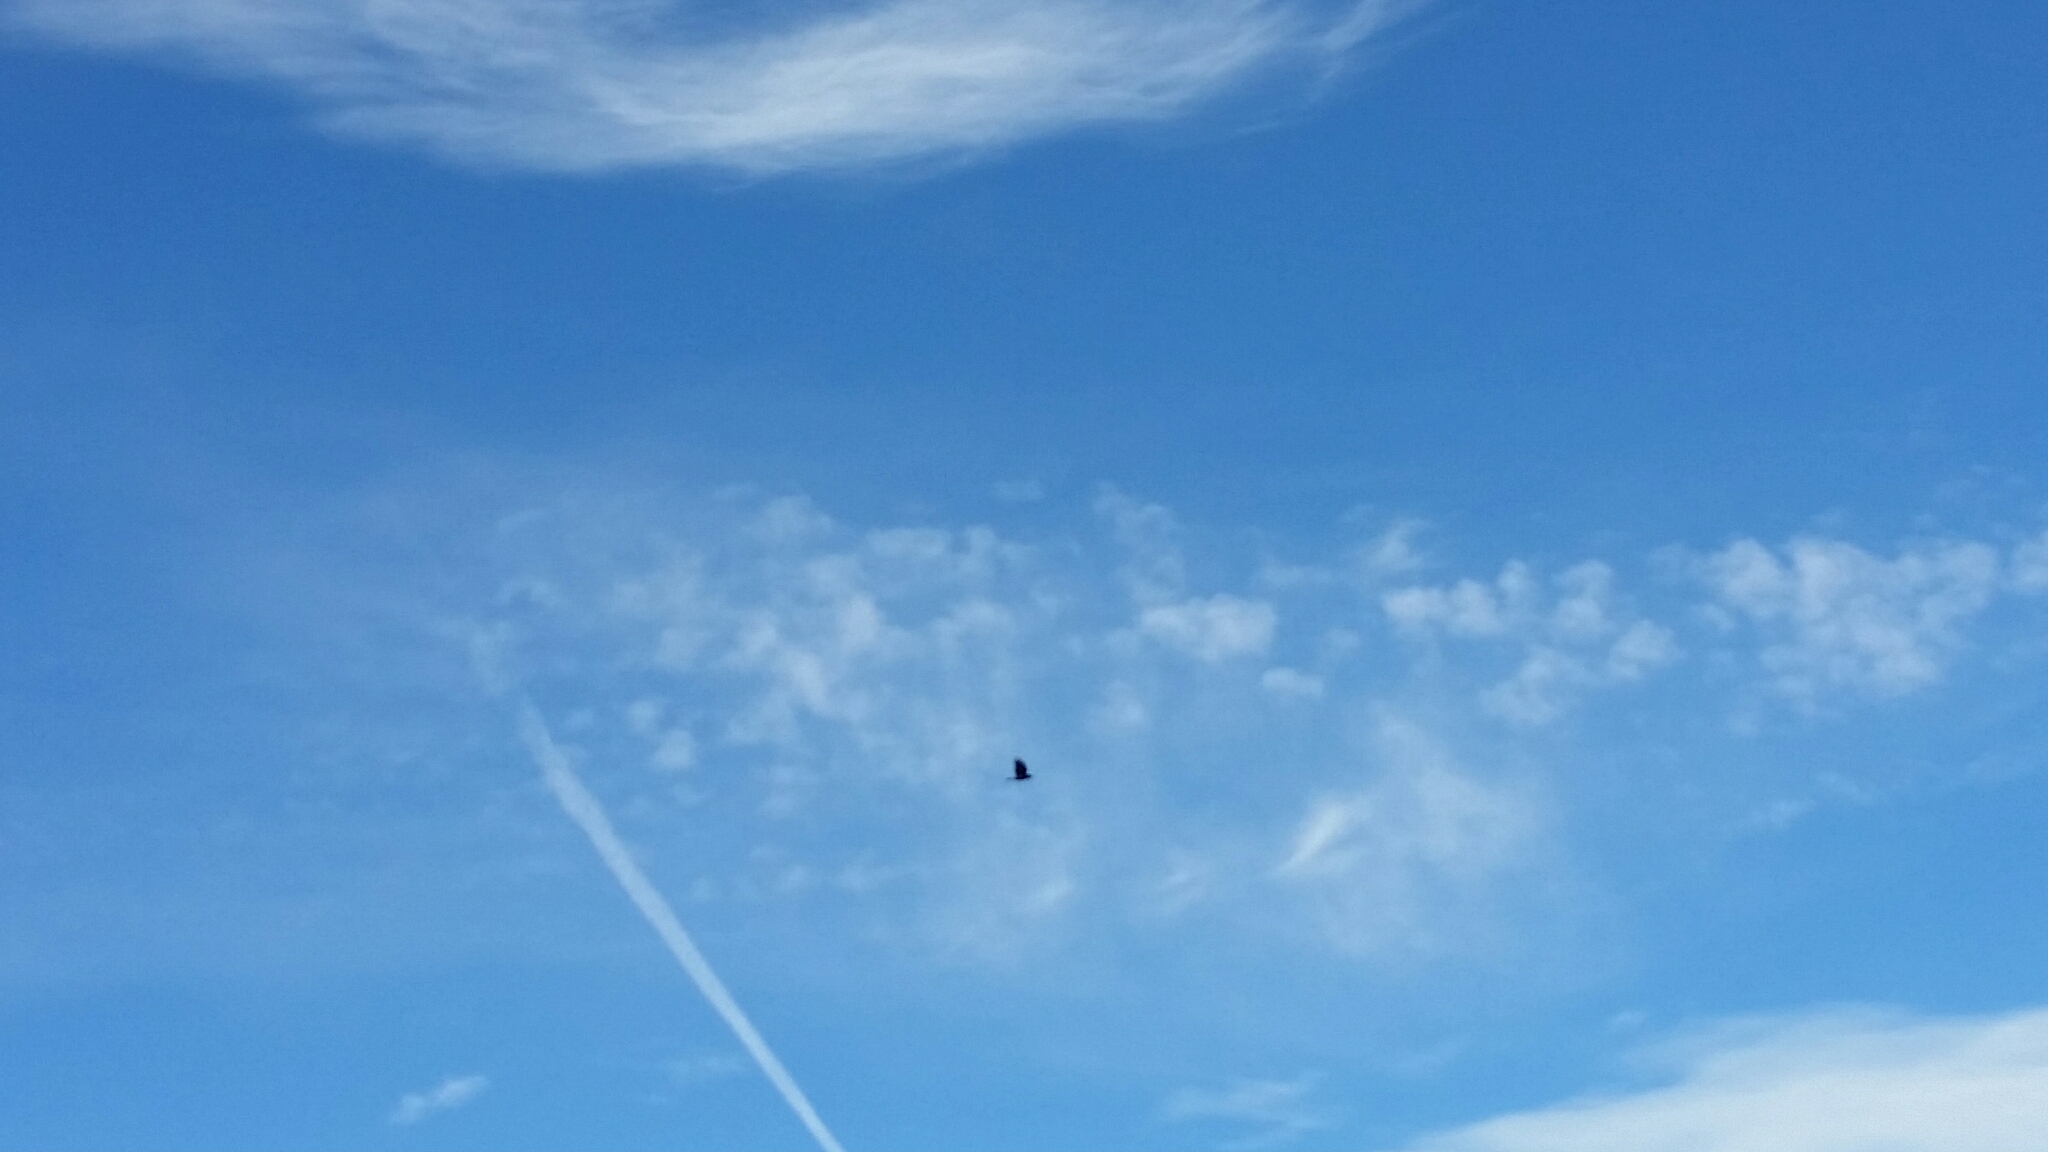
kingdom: Animalia
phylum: Chordata
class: Aves
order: Passeriformes
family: Corvidae
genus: Corvus
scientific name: Corvus
